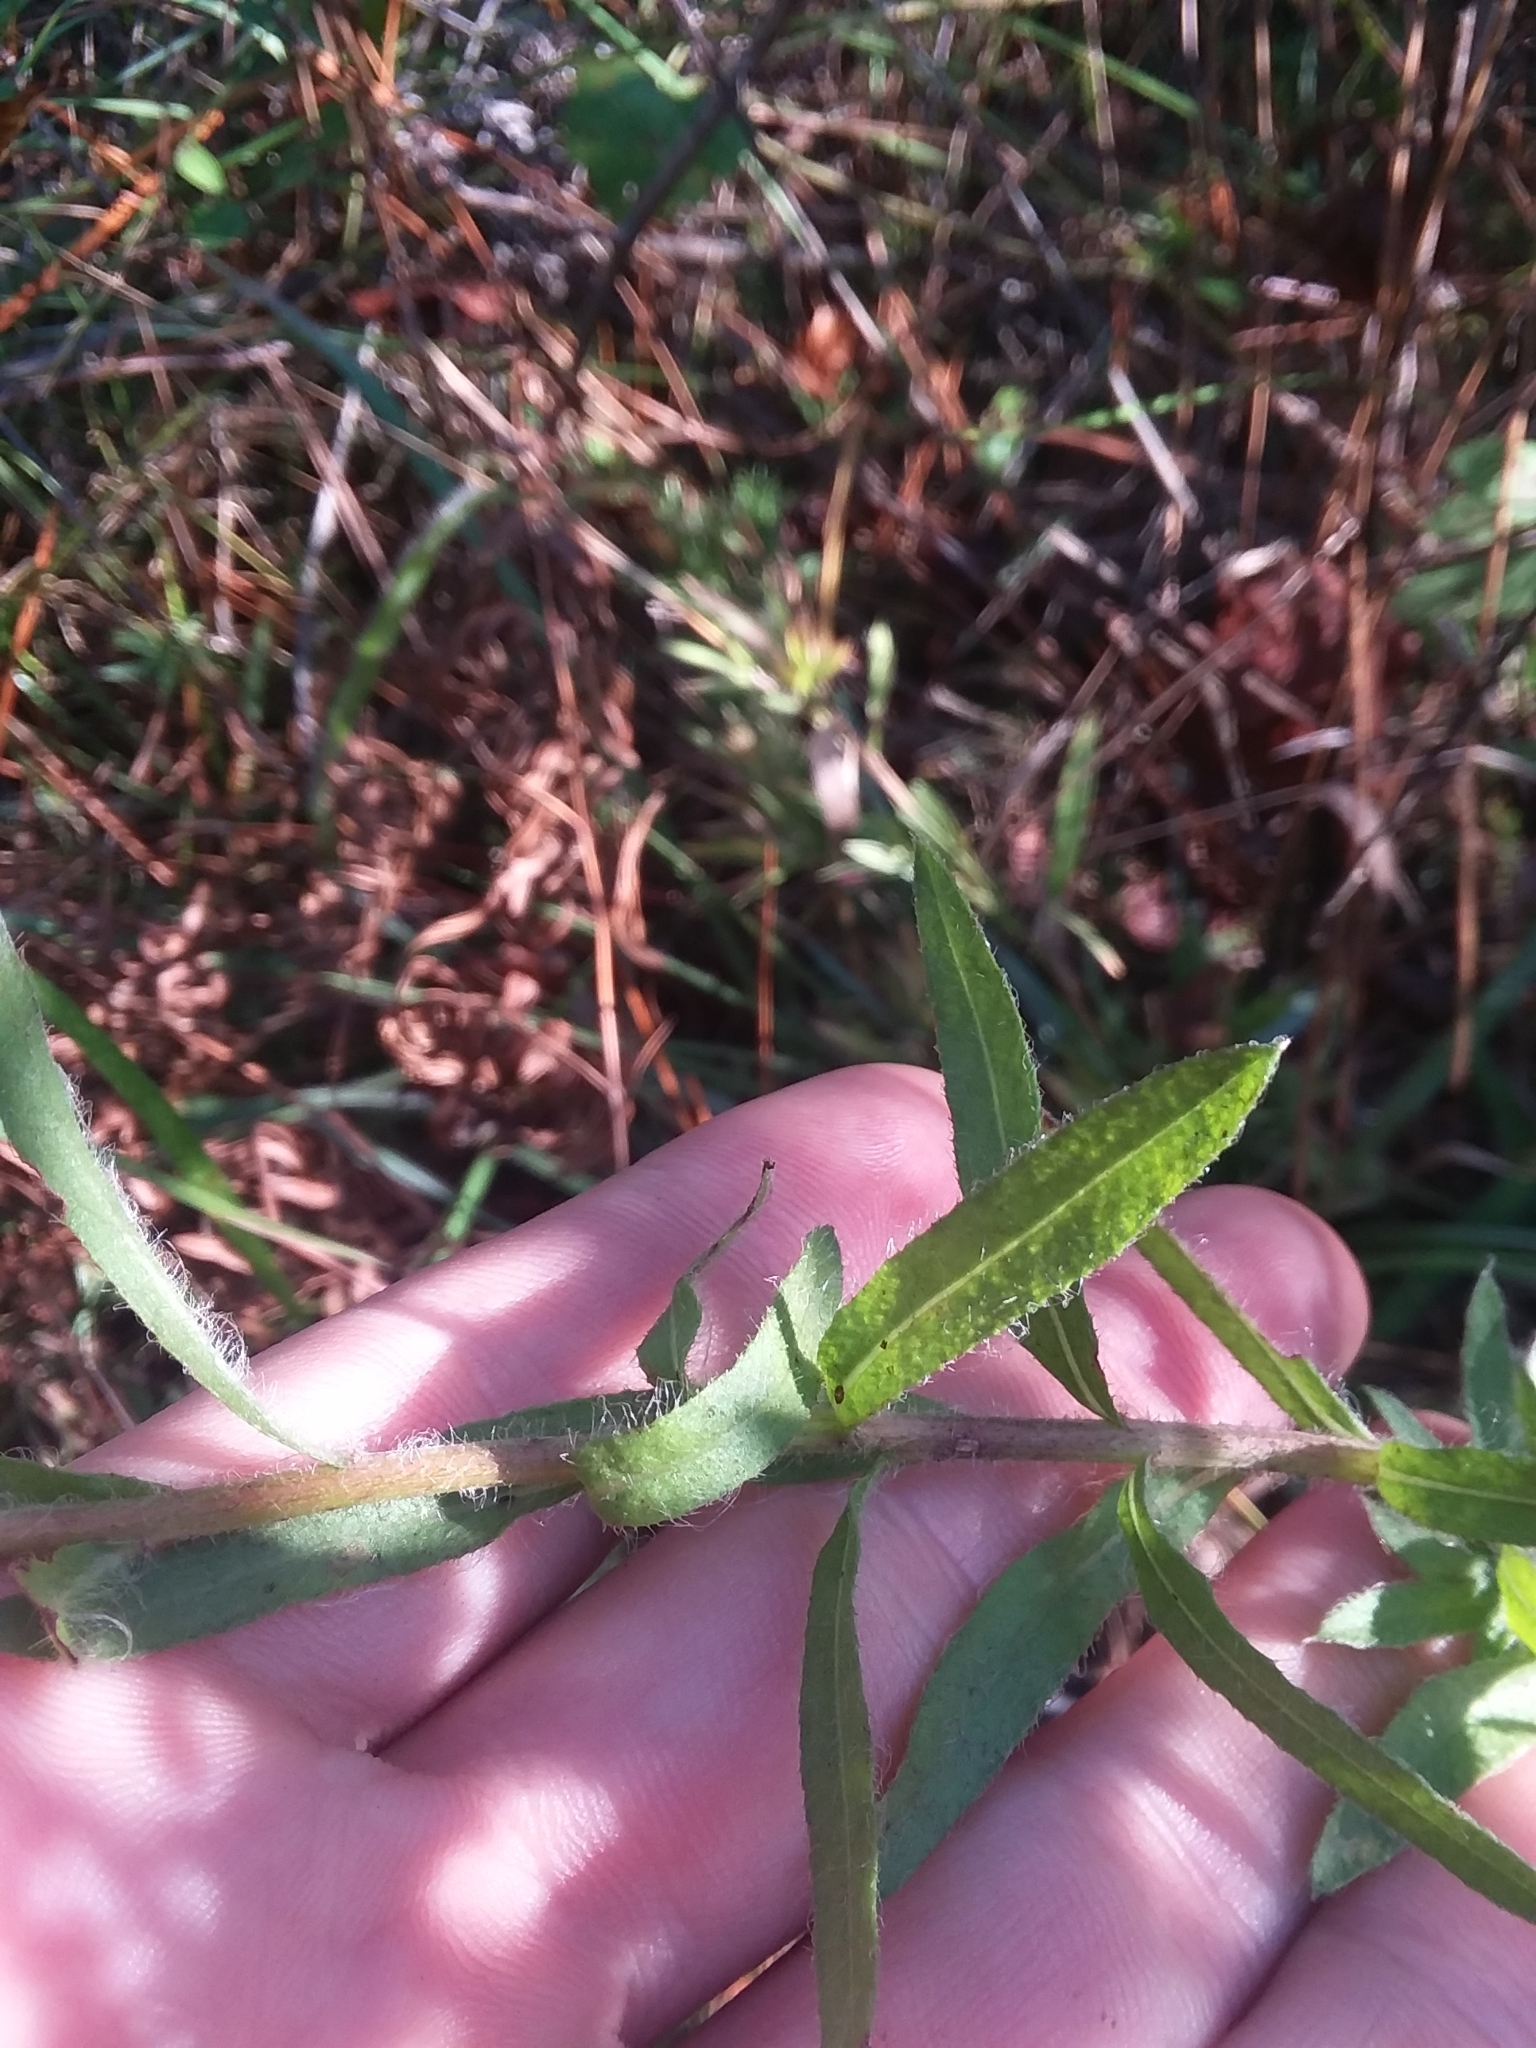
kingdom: Plantae
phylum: Tracheophyta
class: Magnoliopsida
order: Asterales
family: Asteraceae
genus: Chrysopsis
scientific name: Chrysopsis gossypina
